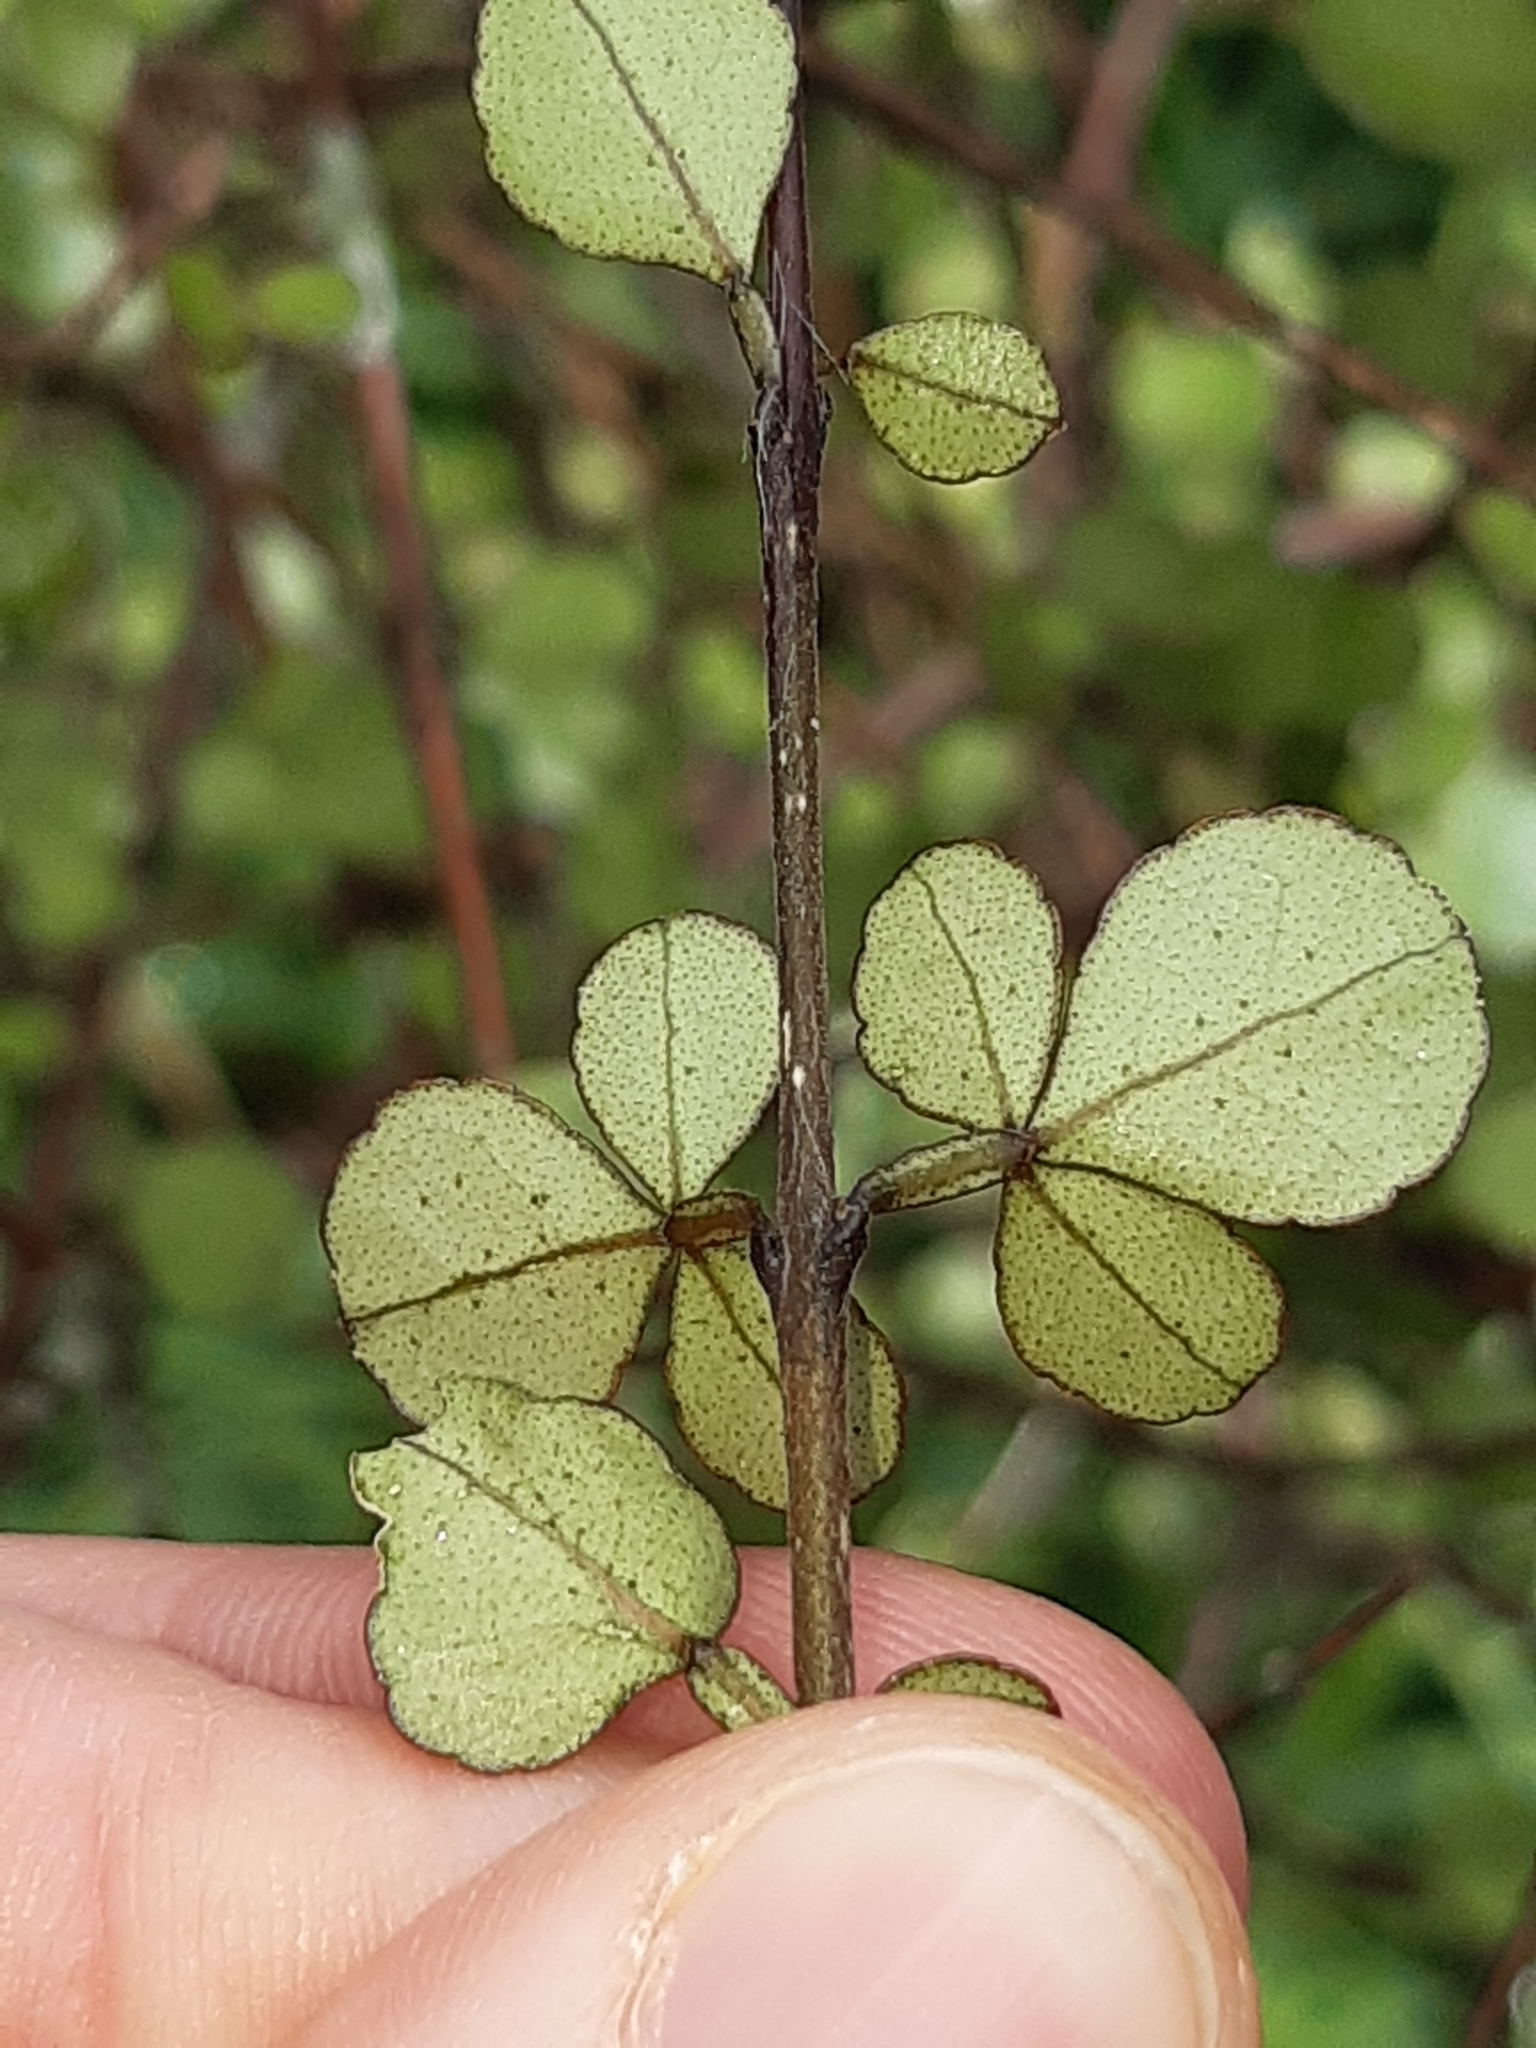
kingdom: Plantae
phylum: Tracheophyta
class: Magnoliopsida
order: Sapindales
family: Rutaceae
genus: Melicope
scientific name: Melicope simplex
